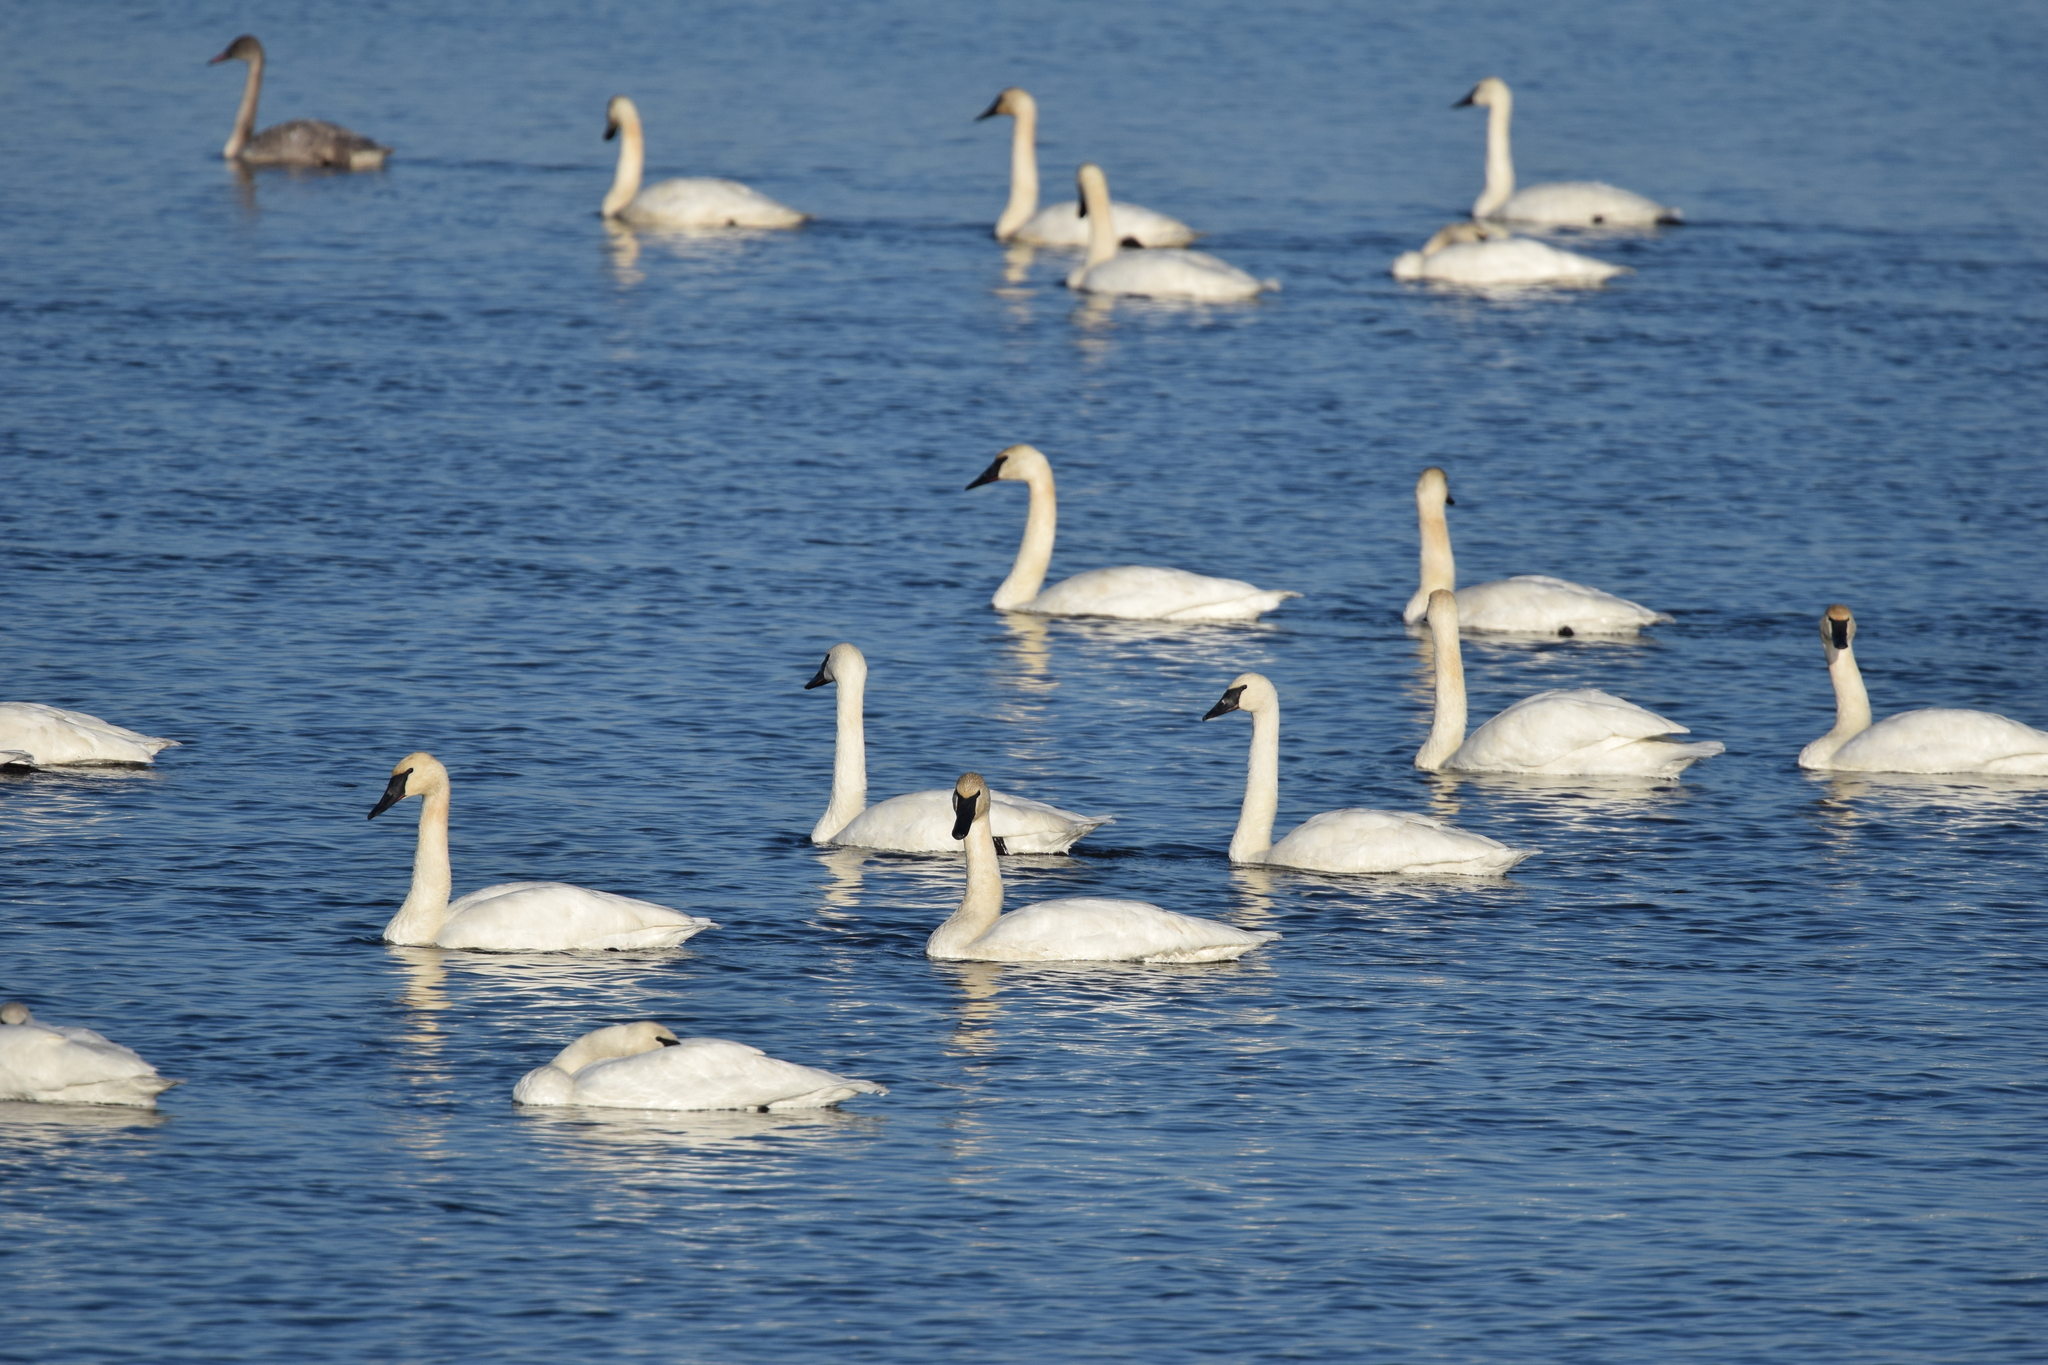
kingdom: Animalia
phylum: Chordata
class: Aves
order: Anseriformes
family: Anatidae
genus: Cygnus
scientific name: Cygnus buccinator
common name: Trumpeter swan
